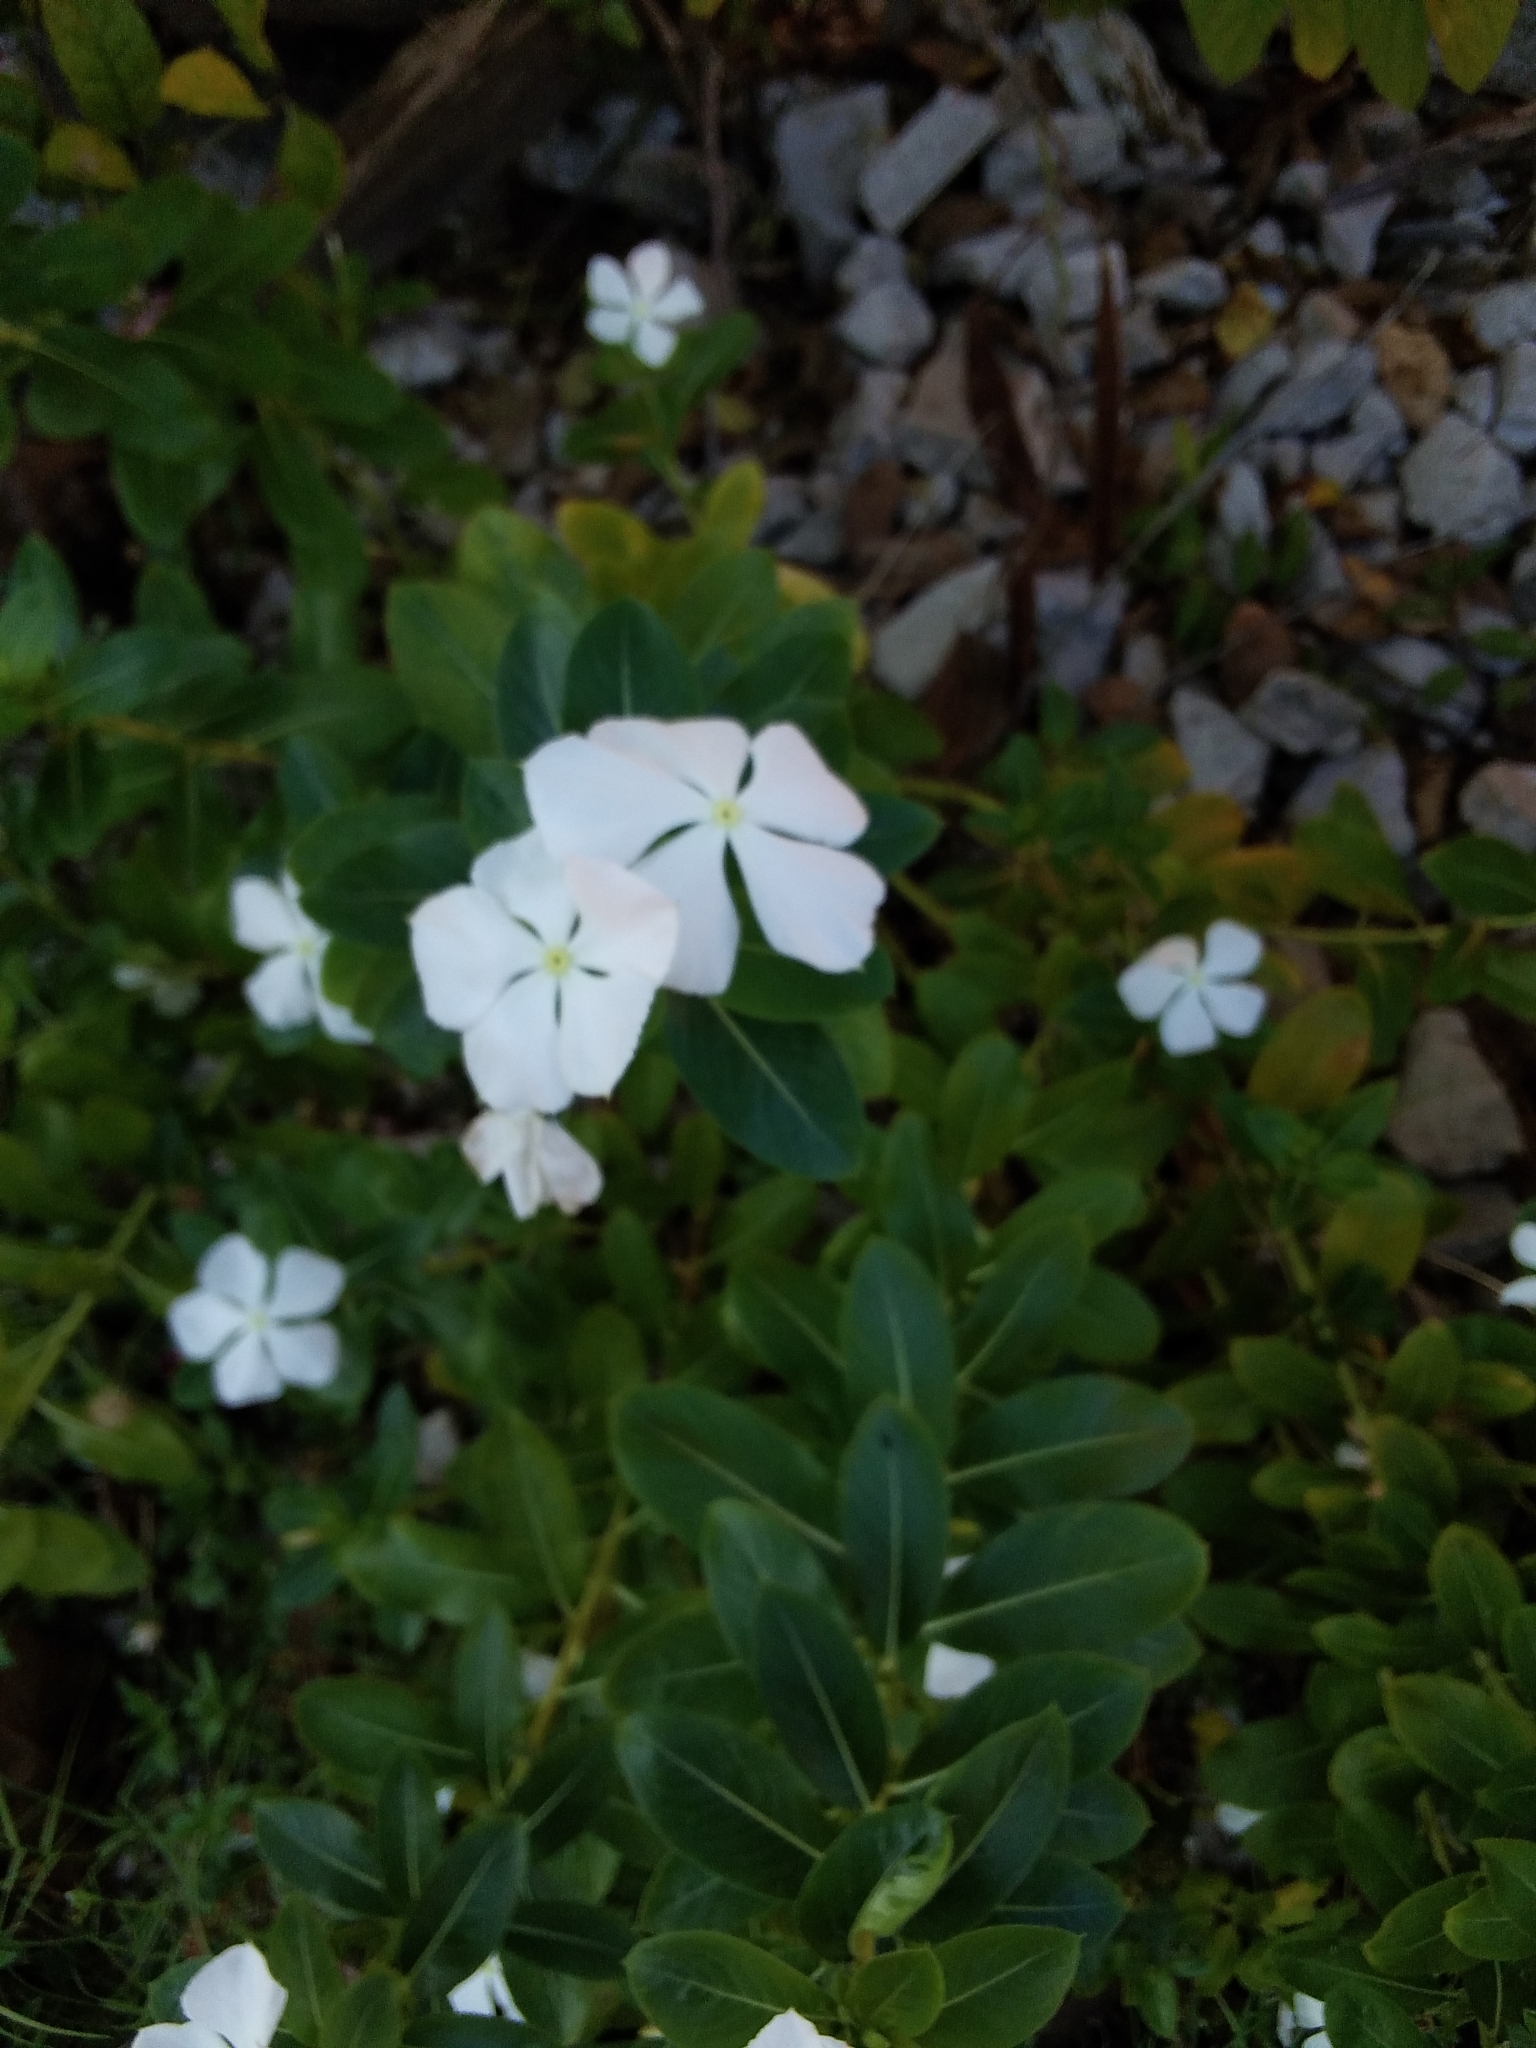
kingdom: Plantae
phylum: Tracheophyta
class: Magnoliopsida
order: Gentianales
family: Apocynaceae
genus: Catharanthus
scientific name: Catharanthus roseus
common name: Madagascar periwinkle
